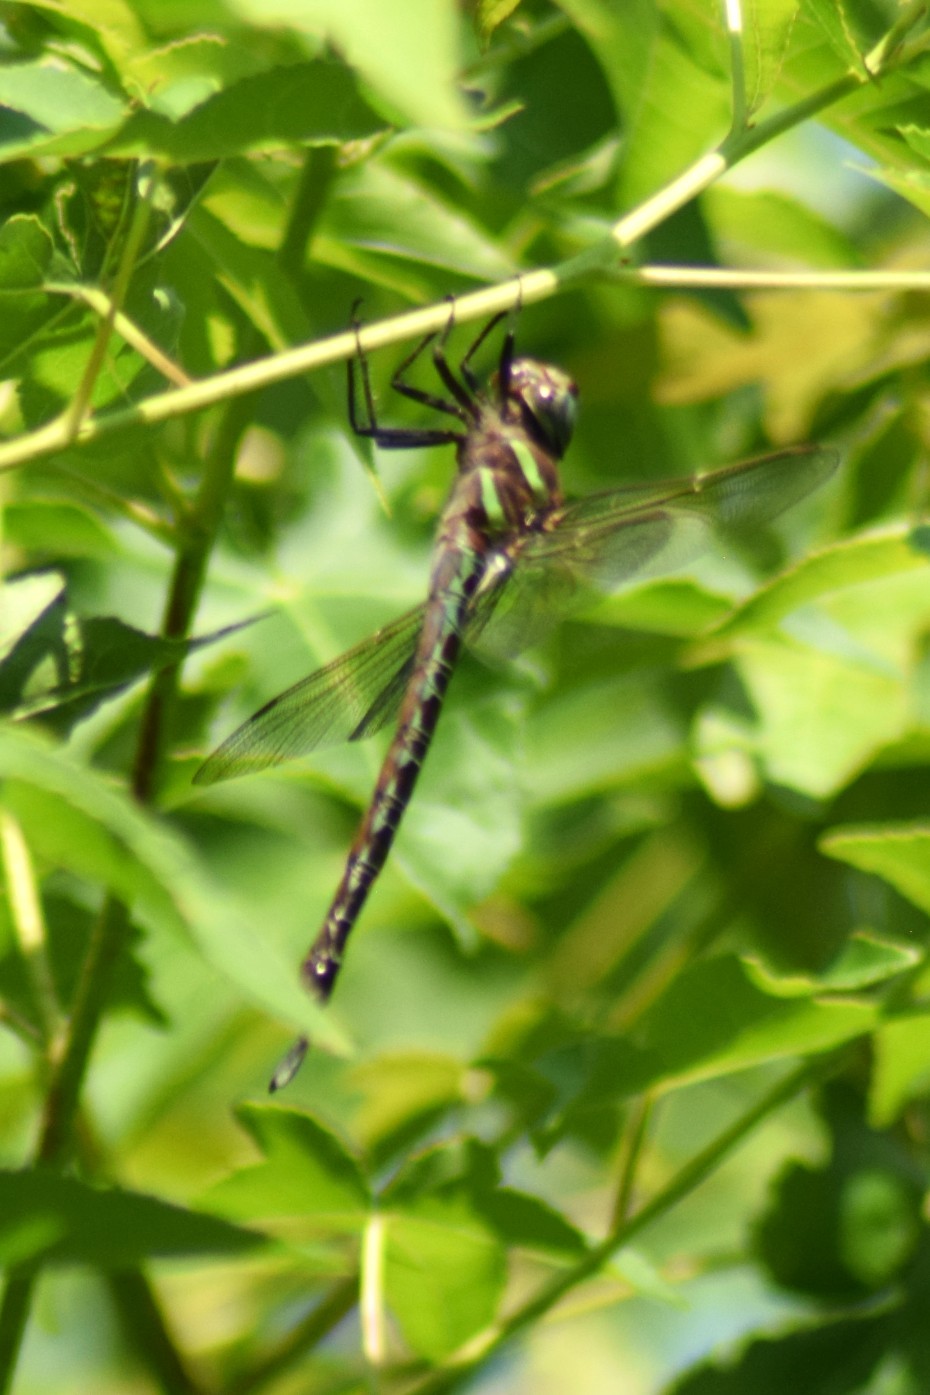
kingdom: Animalia
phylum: Arthropoda
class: Insecta
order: Odonata
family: Aeshnidae
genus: Epiaeschna
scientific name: Epiaeschna heros
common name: Swamp darner
